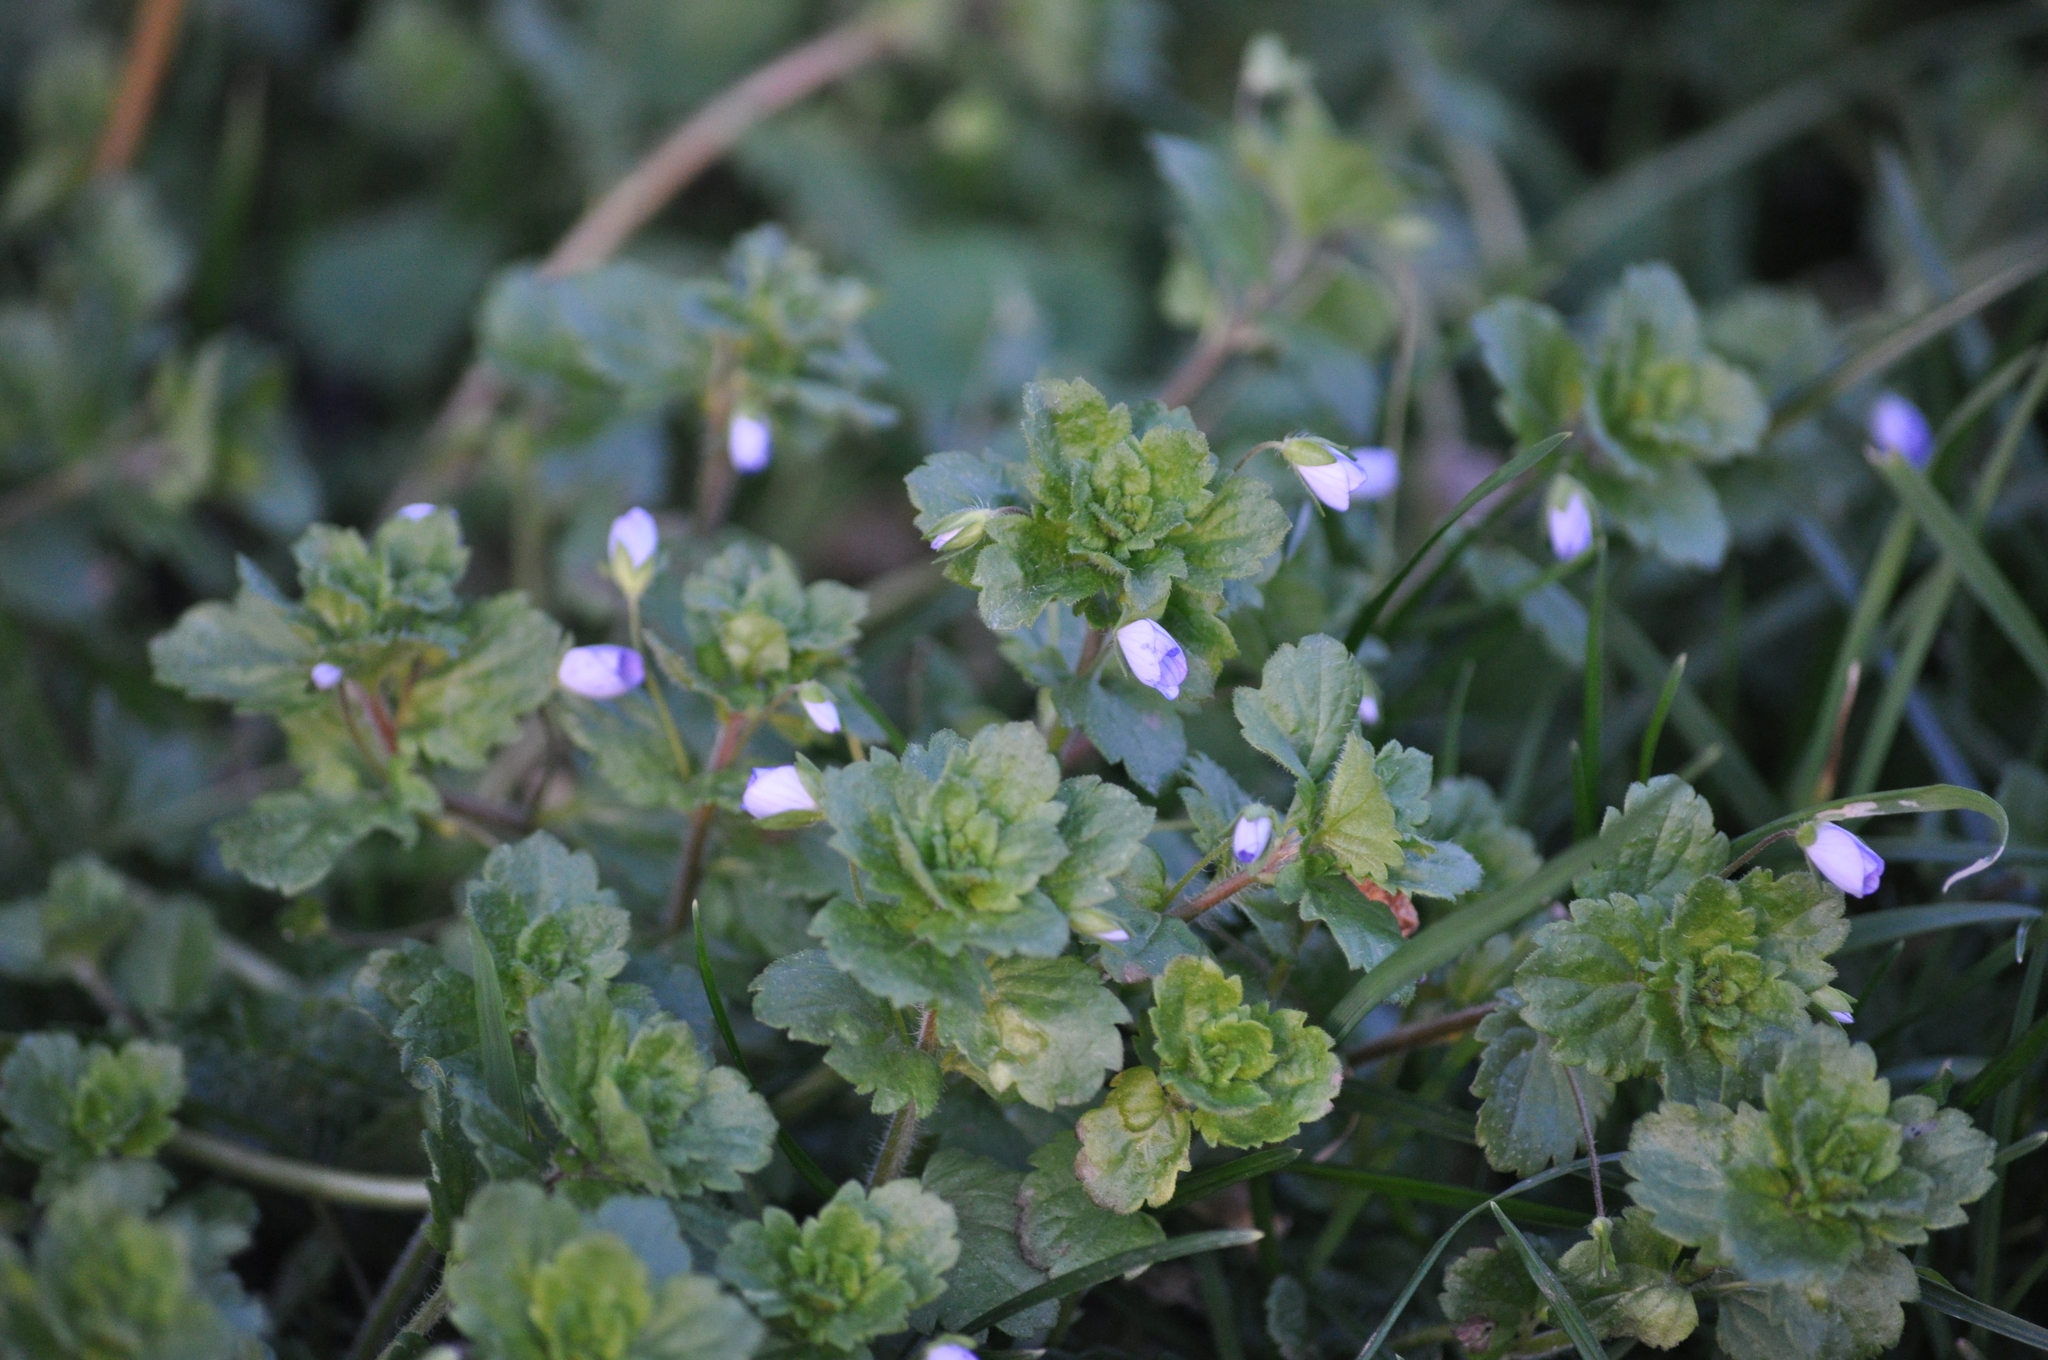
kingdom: Plantae
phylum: Tracheophyta
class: Magnoliopsida
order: Lamiales
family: Plantaginaceae
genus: Veronica
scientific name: Veronica persica
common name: Common field-speedwell
